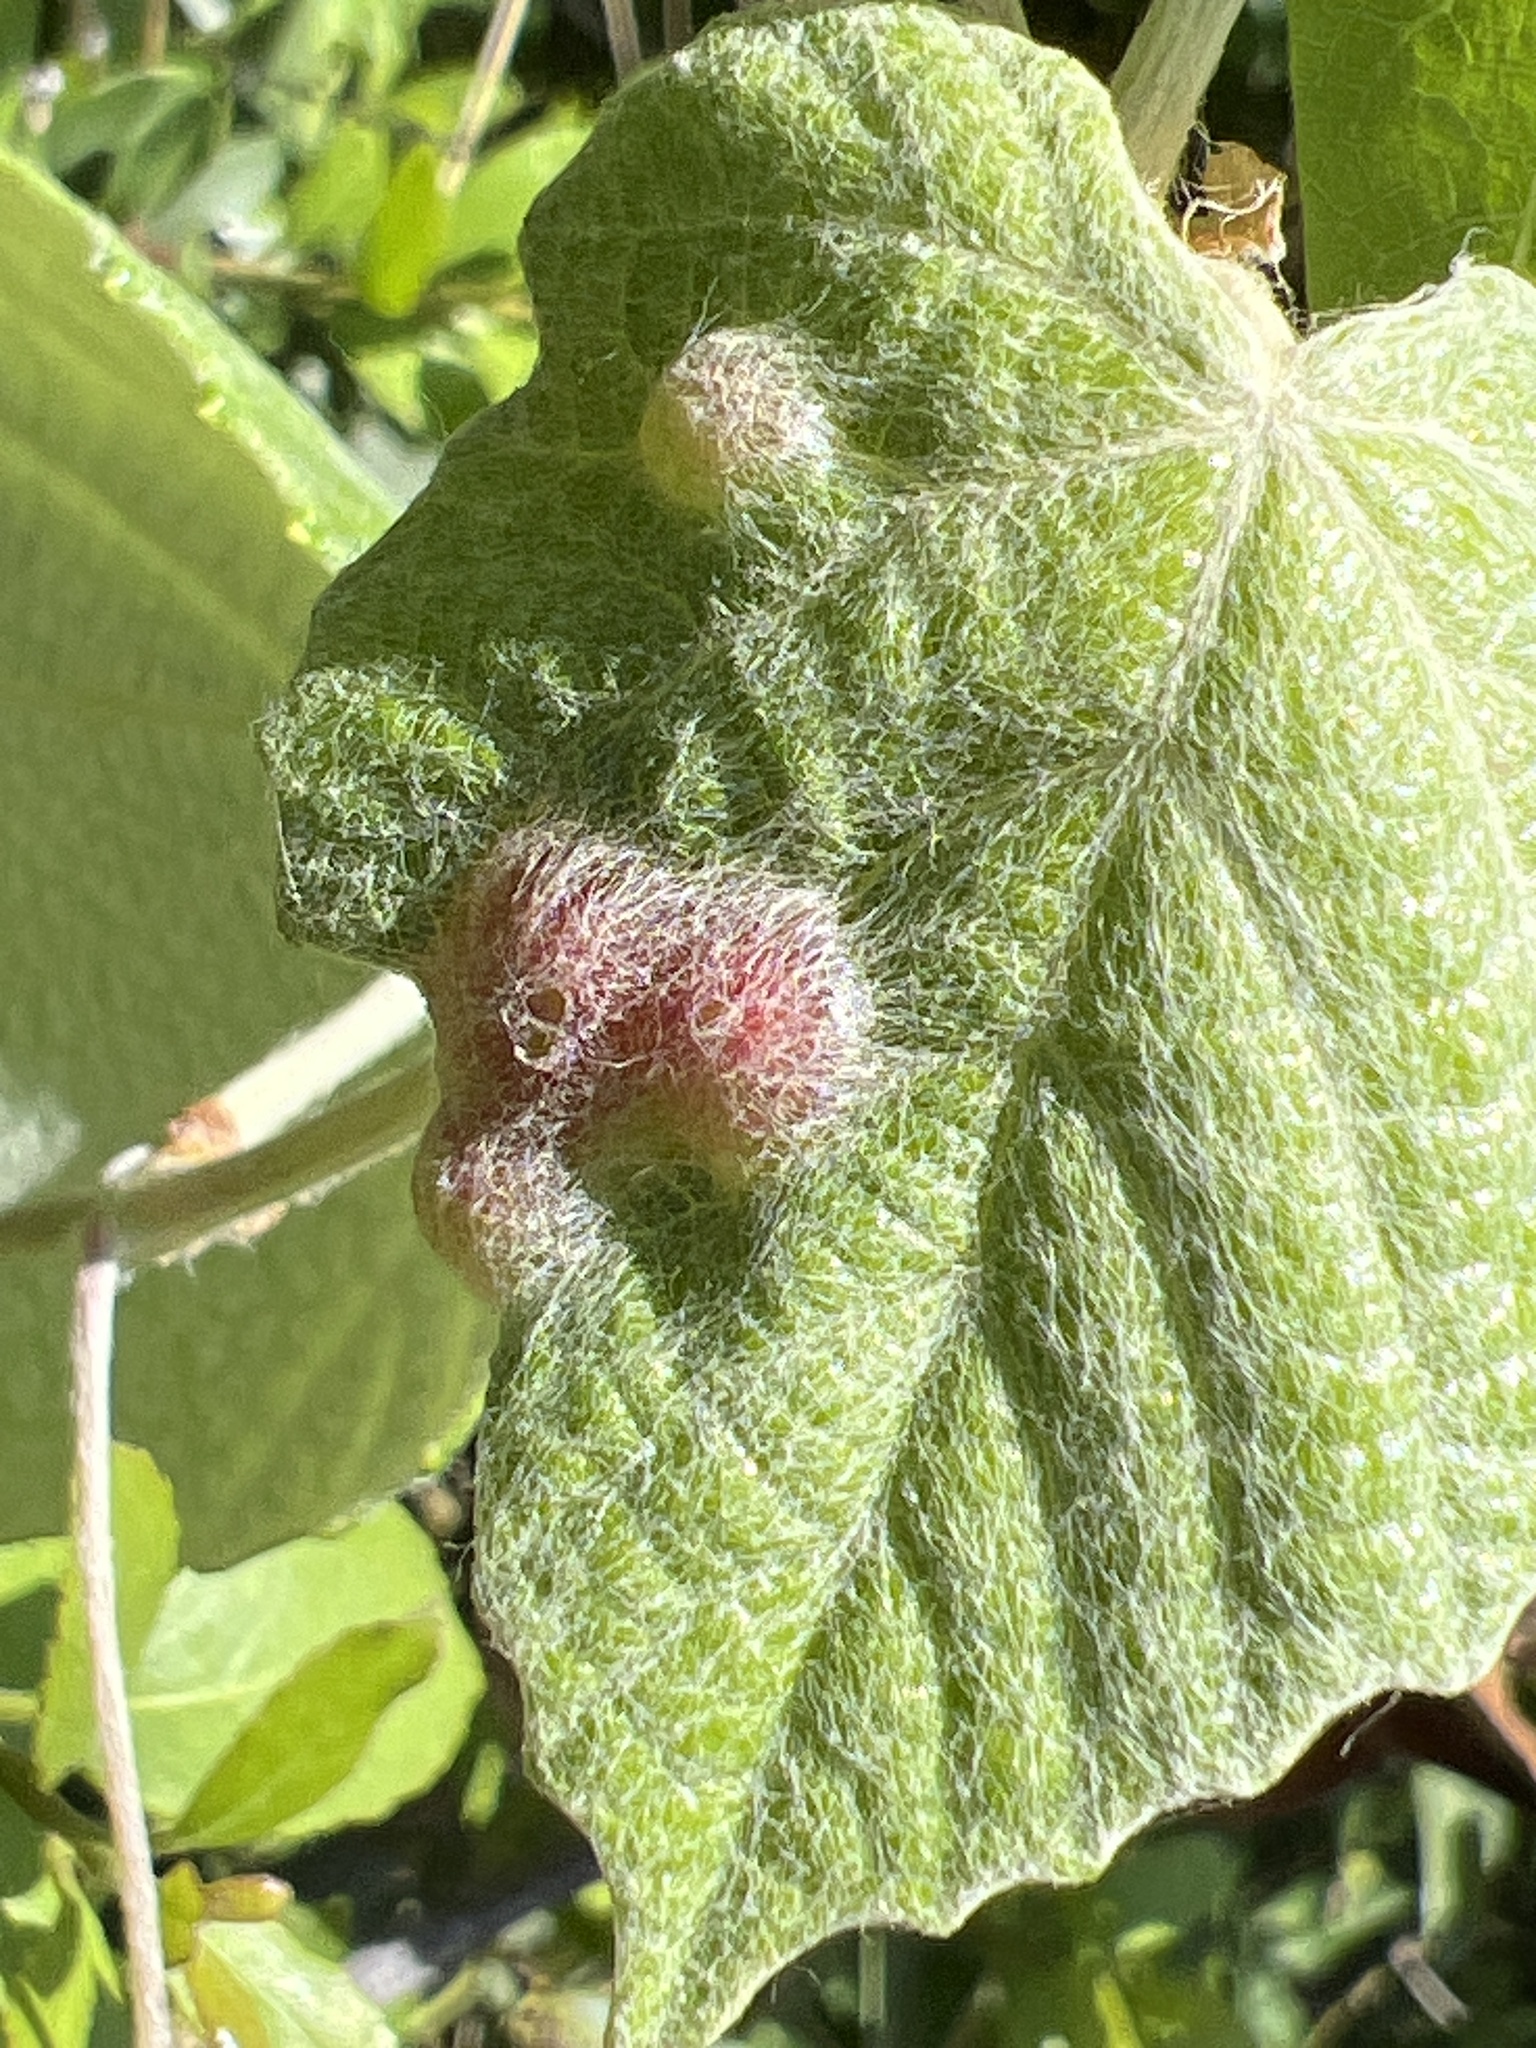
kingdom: Animalia
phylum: Arthropoda
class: Insecta
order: Diptera
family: Cecidomyiidae
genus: Vitisiella
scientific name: Vitisiella brevicauda
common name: Grape tumid gallmaker midge
